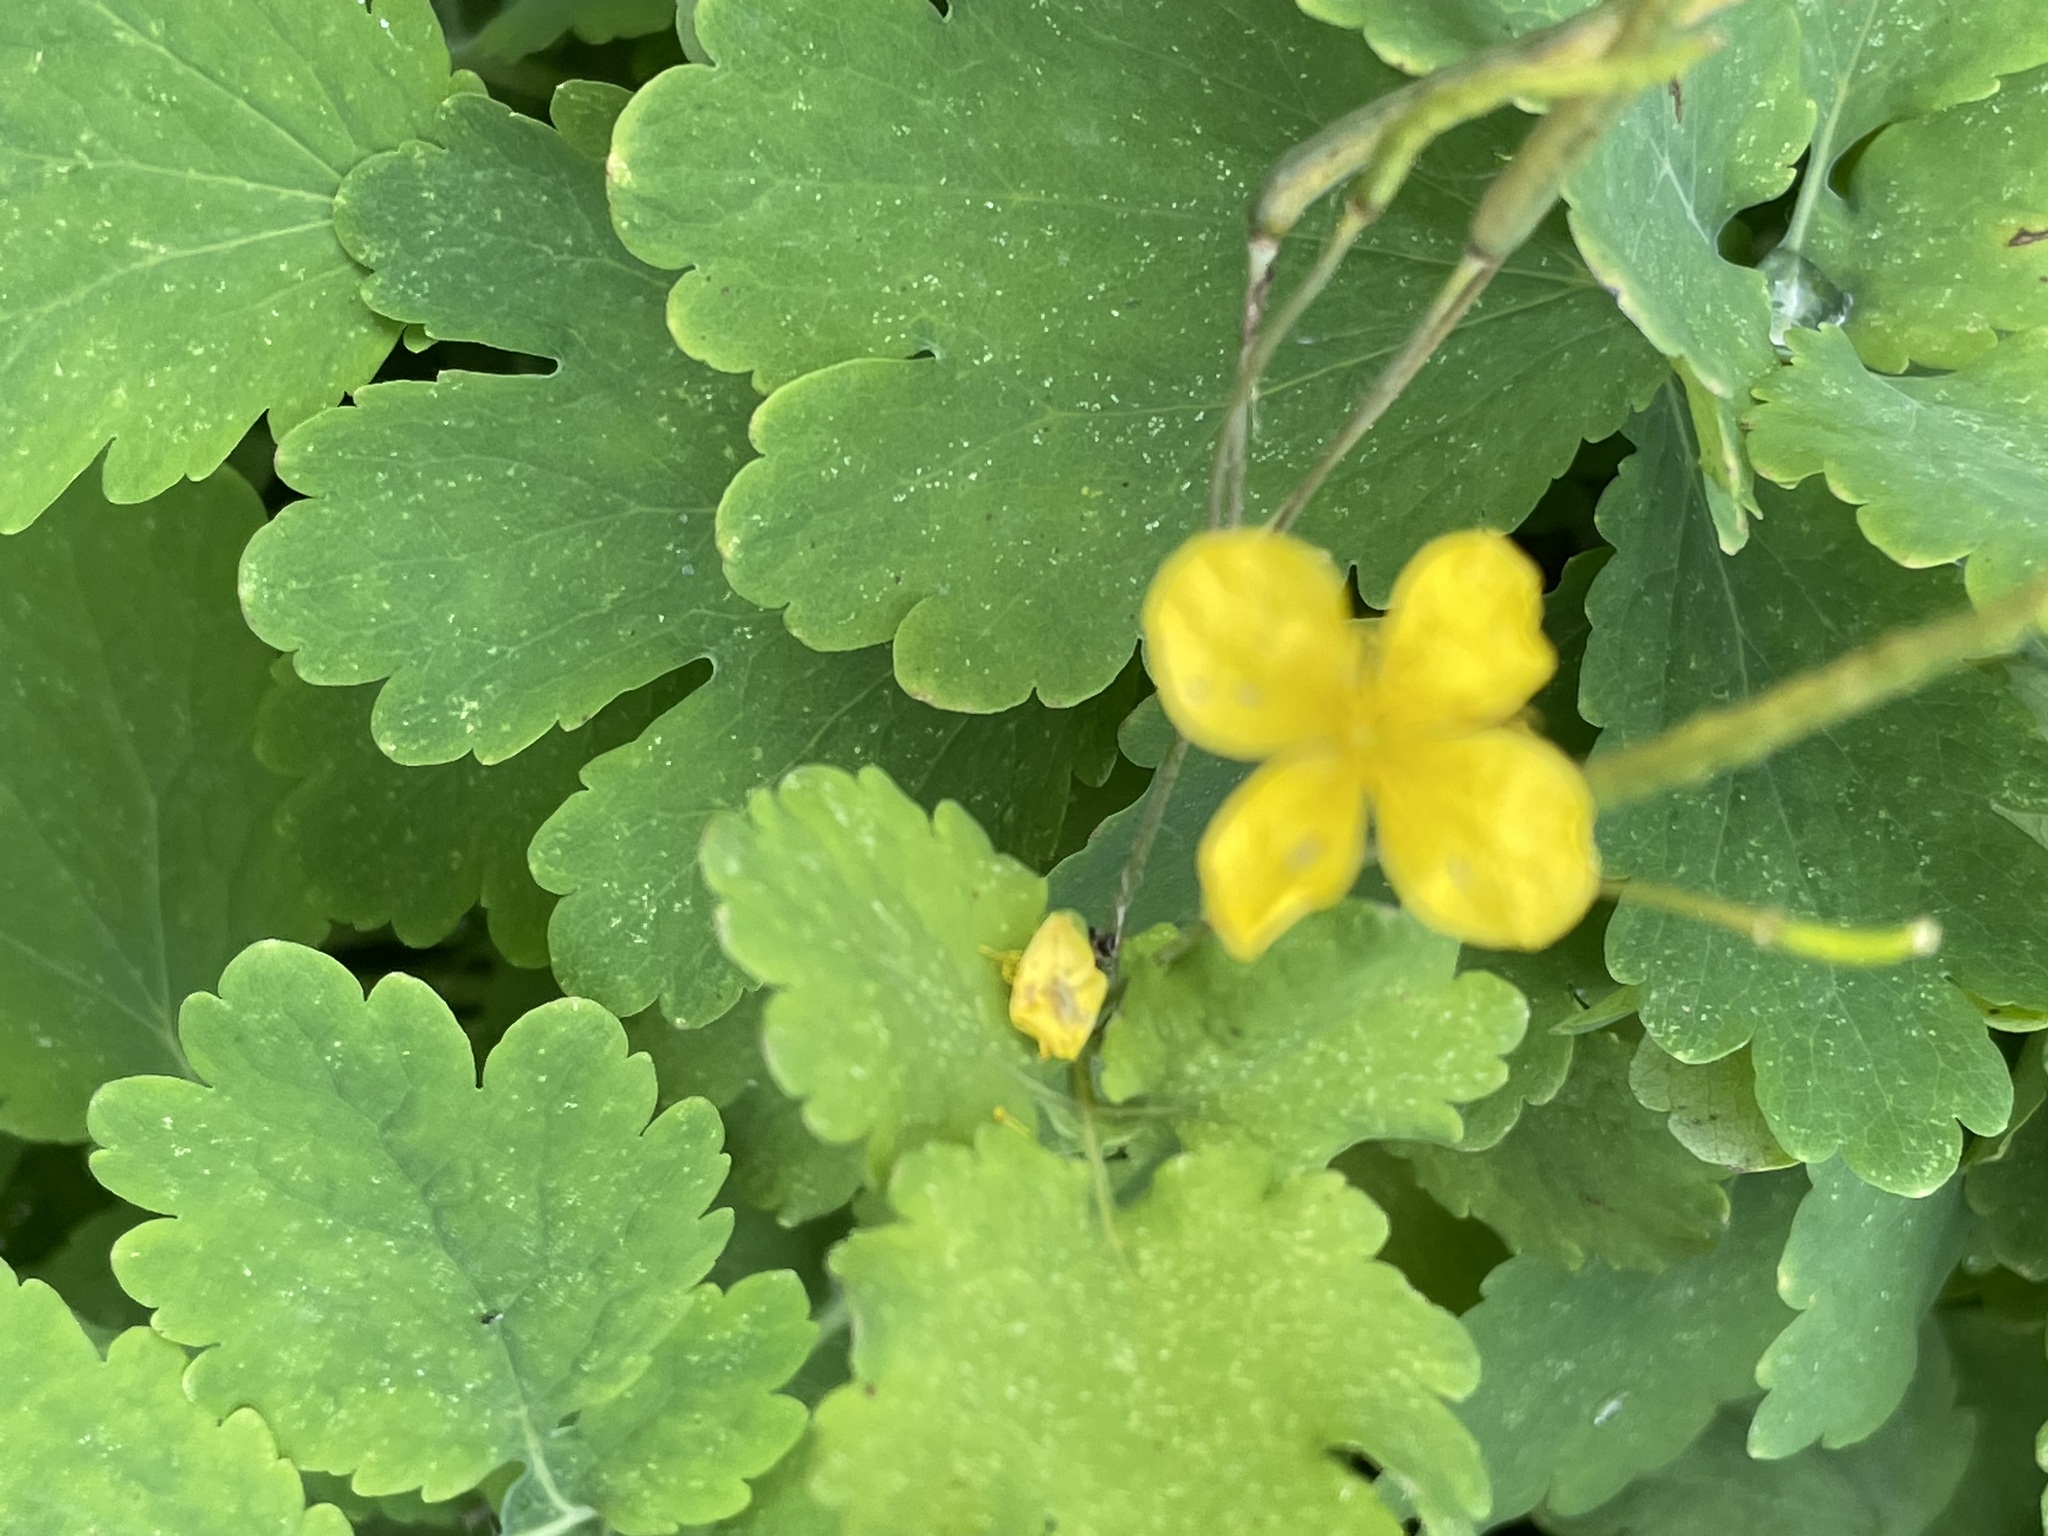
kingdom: Plantae
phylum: Tracheophyta
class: Magnoliopsida
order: Ranunculales
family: Papaveraceae
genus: Chelidonium
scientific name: Chelidonium majus
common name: Greater celandine
